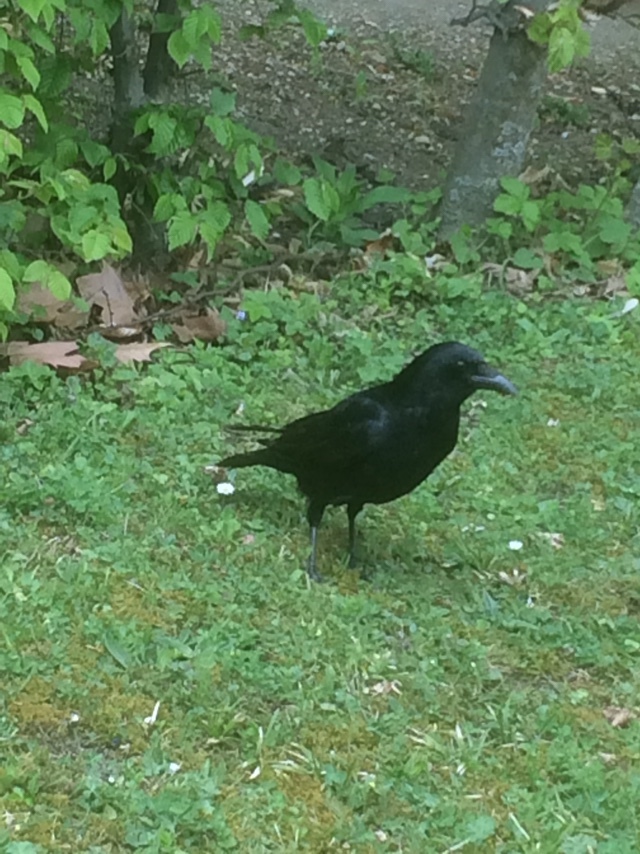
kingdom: Animalia
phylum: Chordata
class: Aves
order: Passeriformes
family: Corvidae
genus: Corvus
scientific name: Corvus corone
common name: Carrion crow
